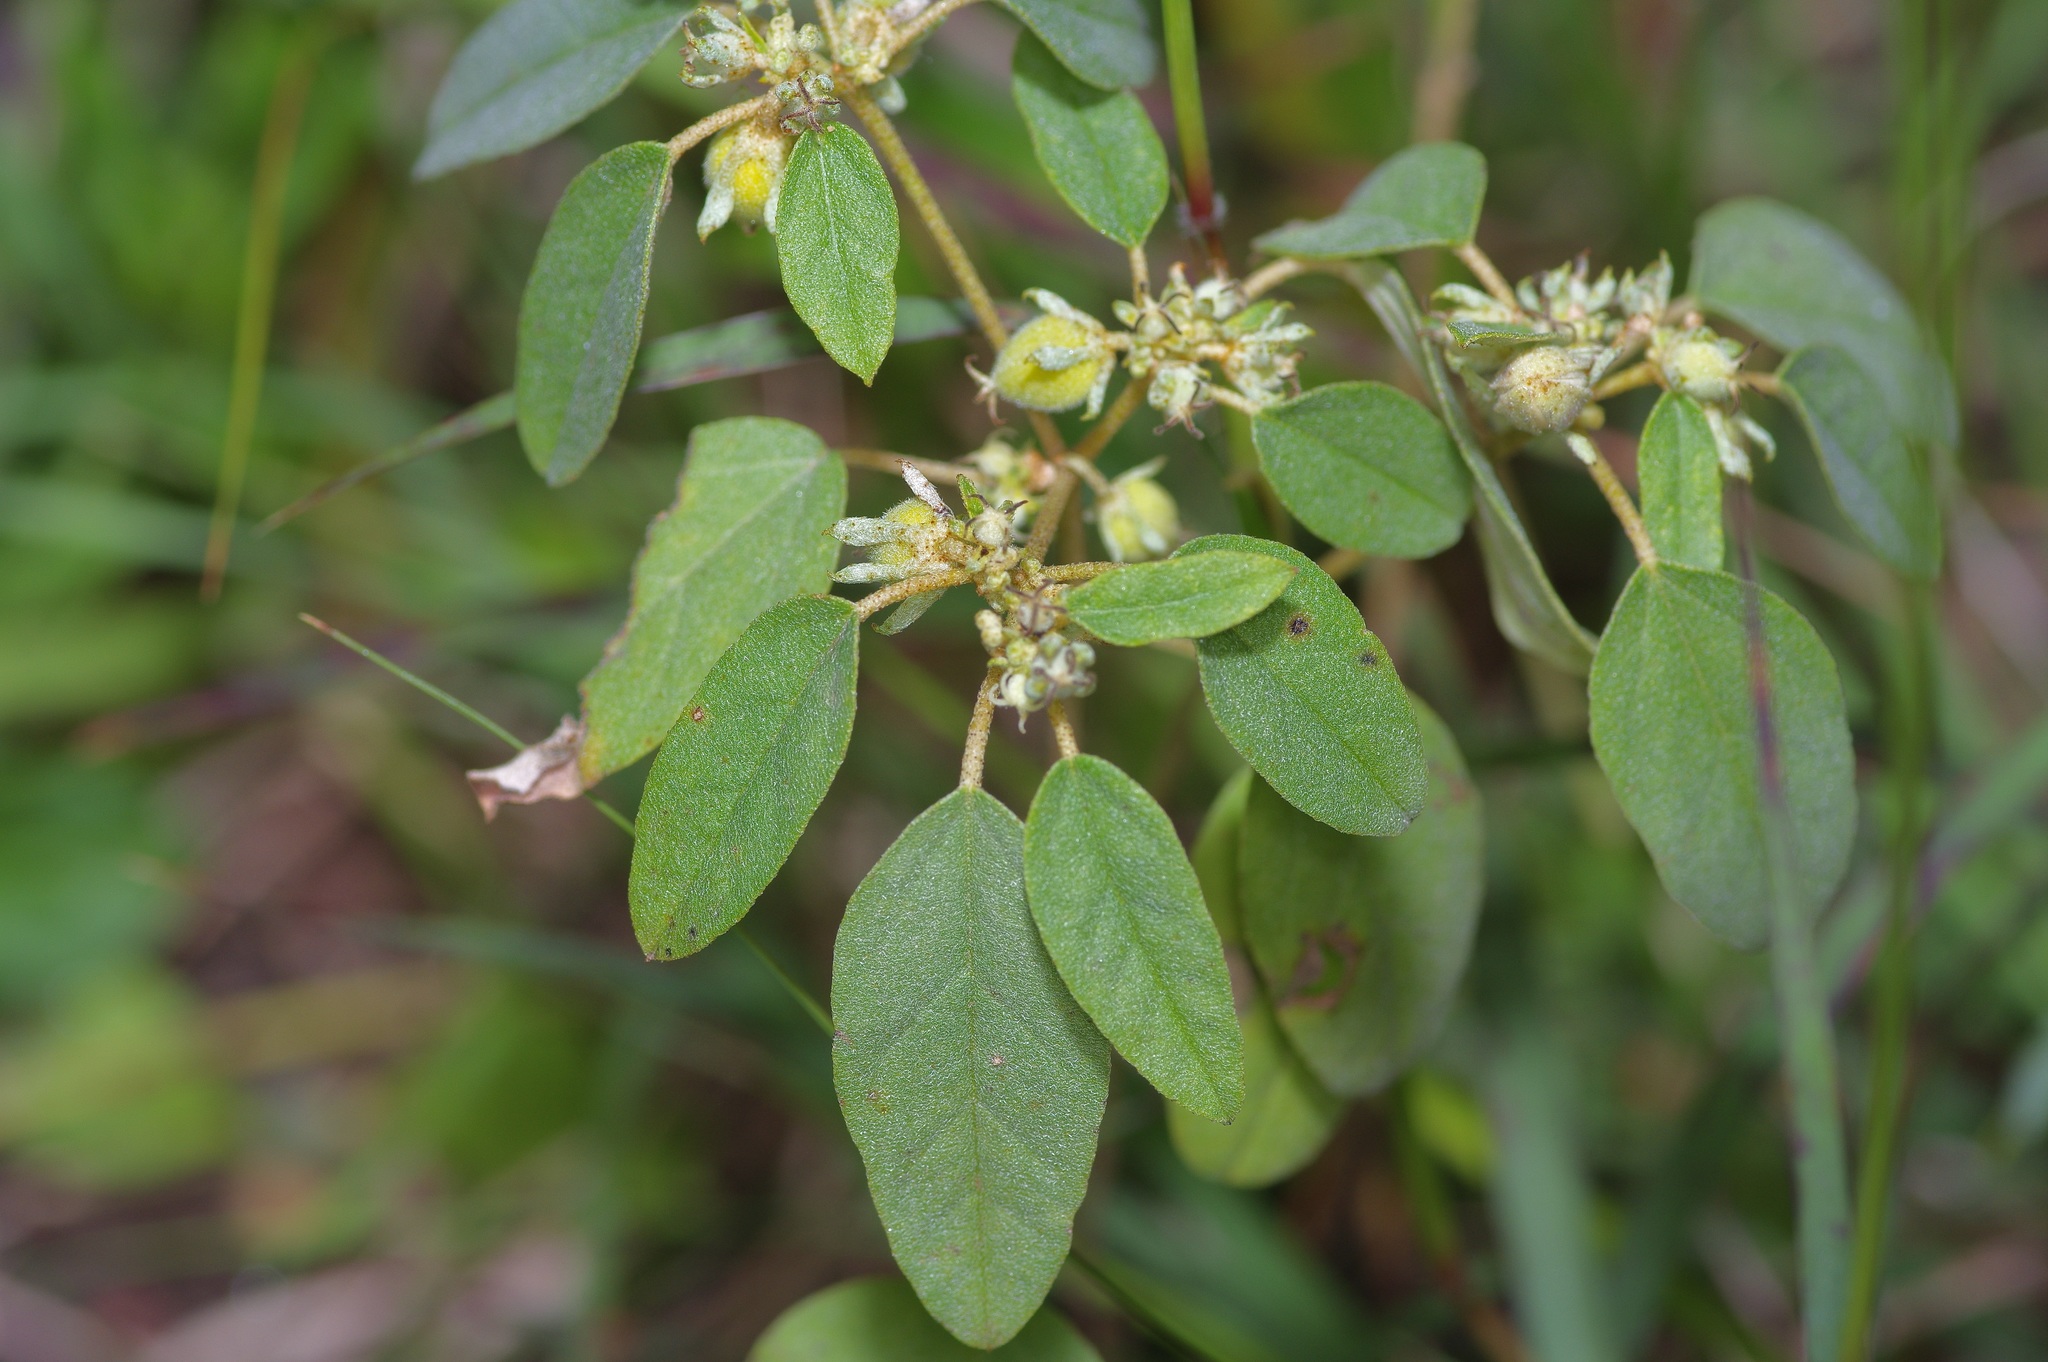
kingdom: Plantae
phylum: Tracheophyta
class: Magnoliopsida
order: Malpighiales
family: Euphorbiaceae
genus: Croton
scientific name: Croton monanthogynus
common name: One-seed croton
